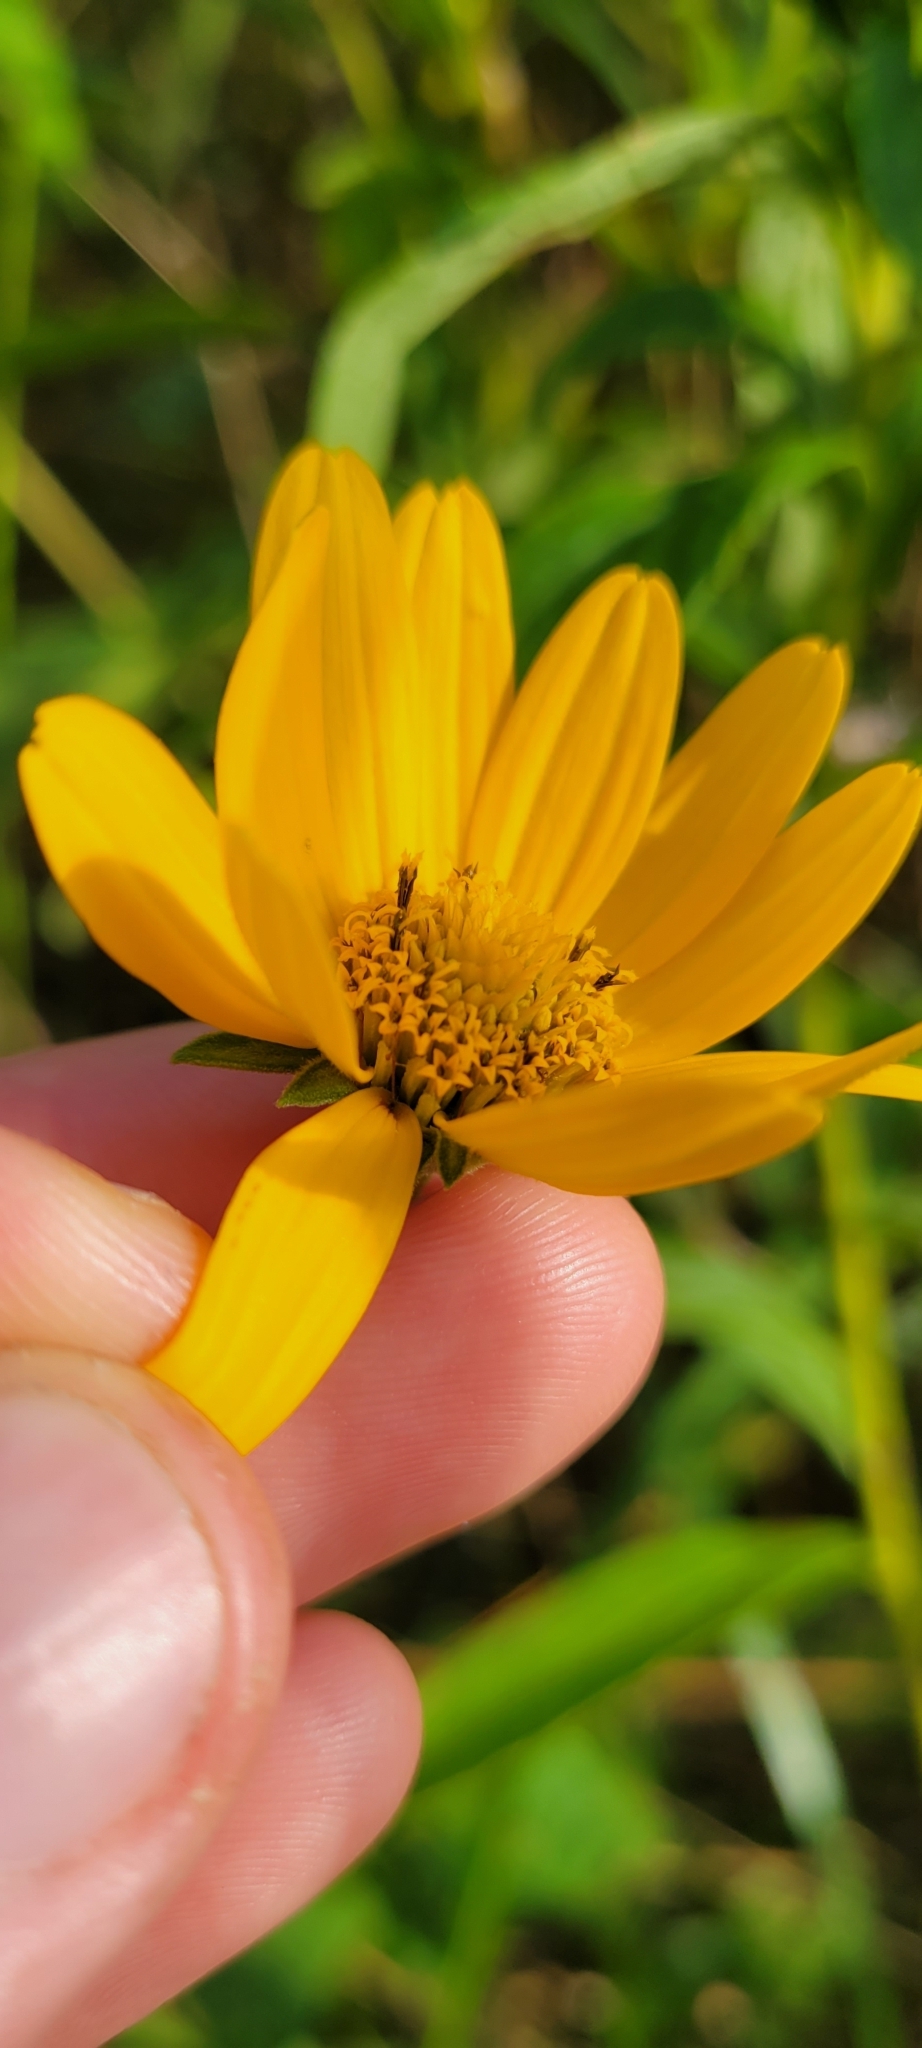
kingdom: Plantae
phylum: Tracheophyta
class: Magnoliopsida
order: Asterales
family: Asteraceae
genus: Heliopsis
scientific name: Heliopsis helianthoides
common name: False sunflower
